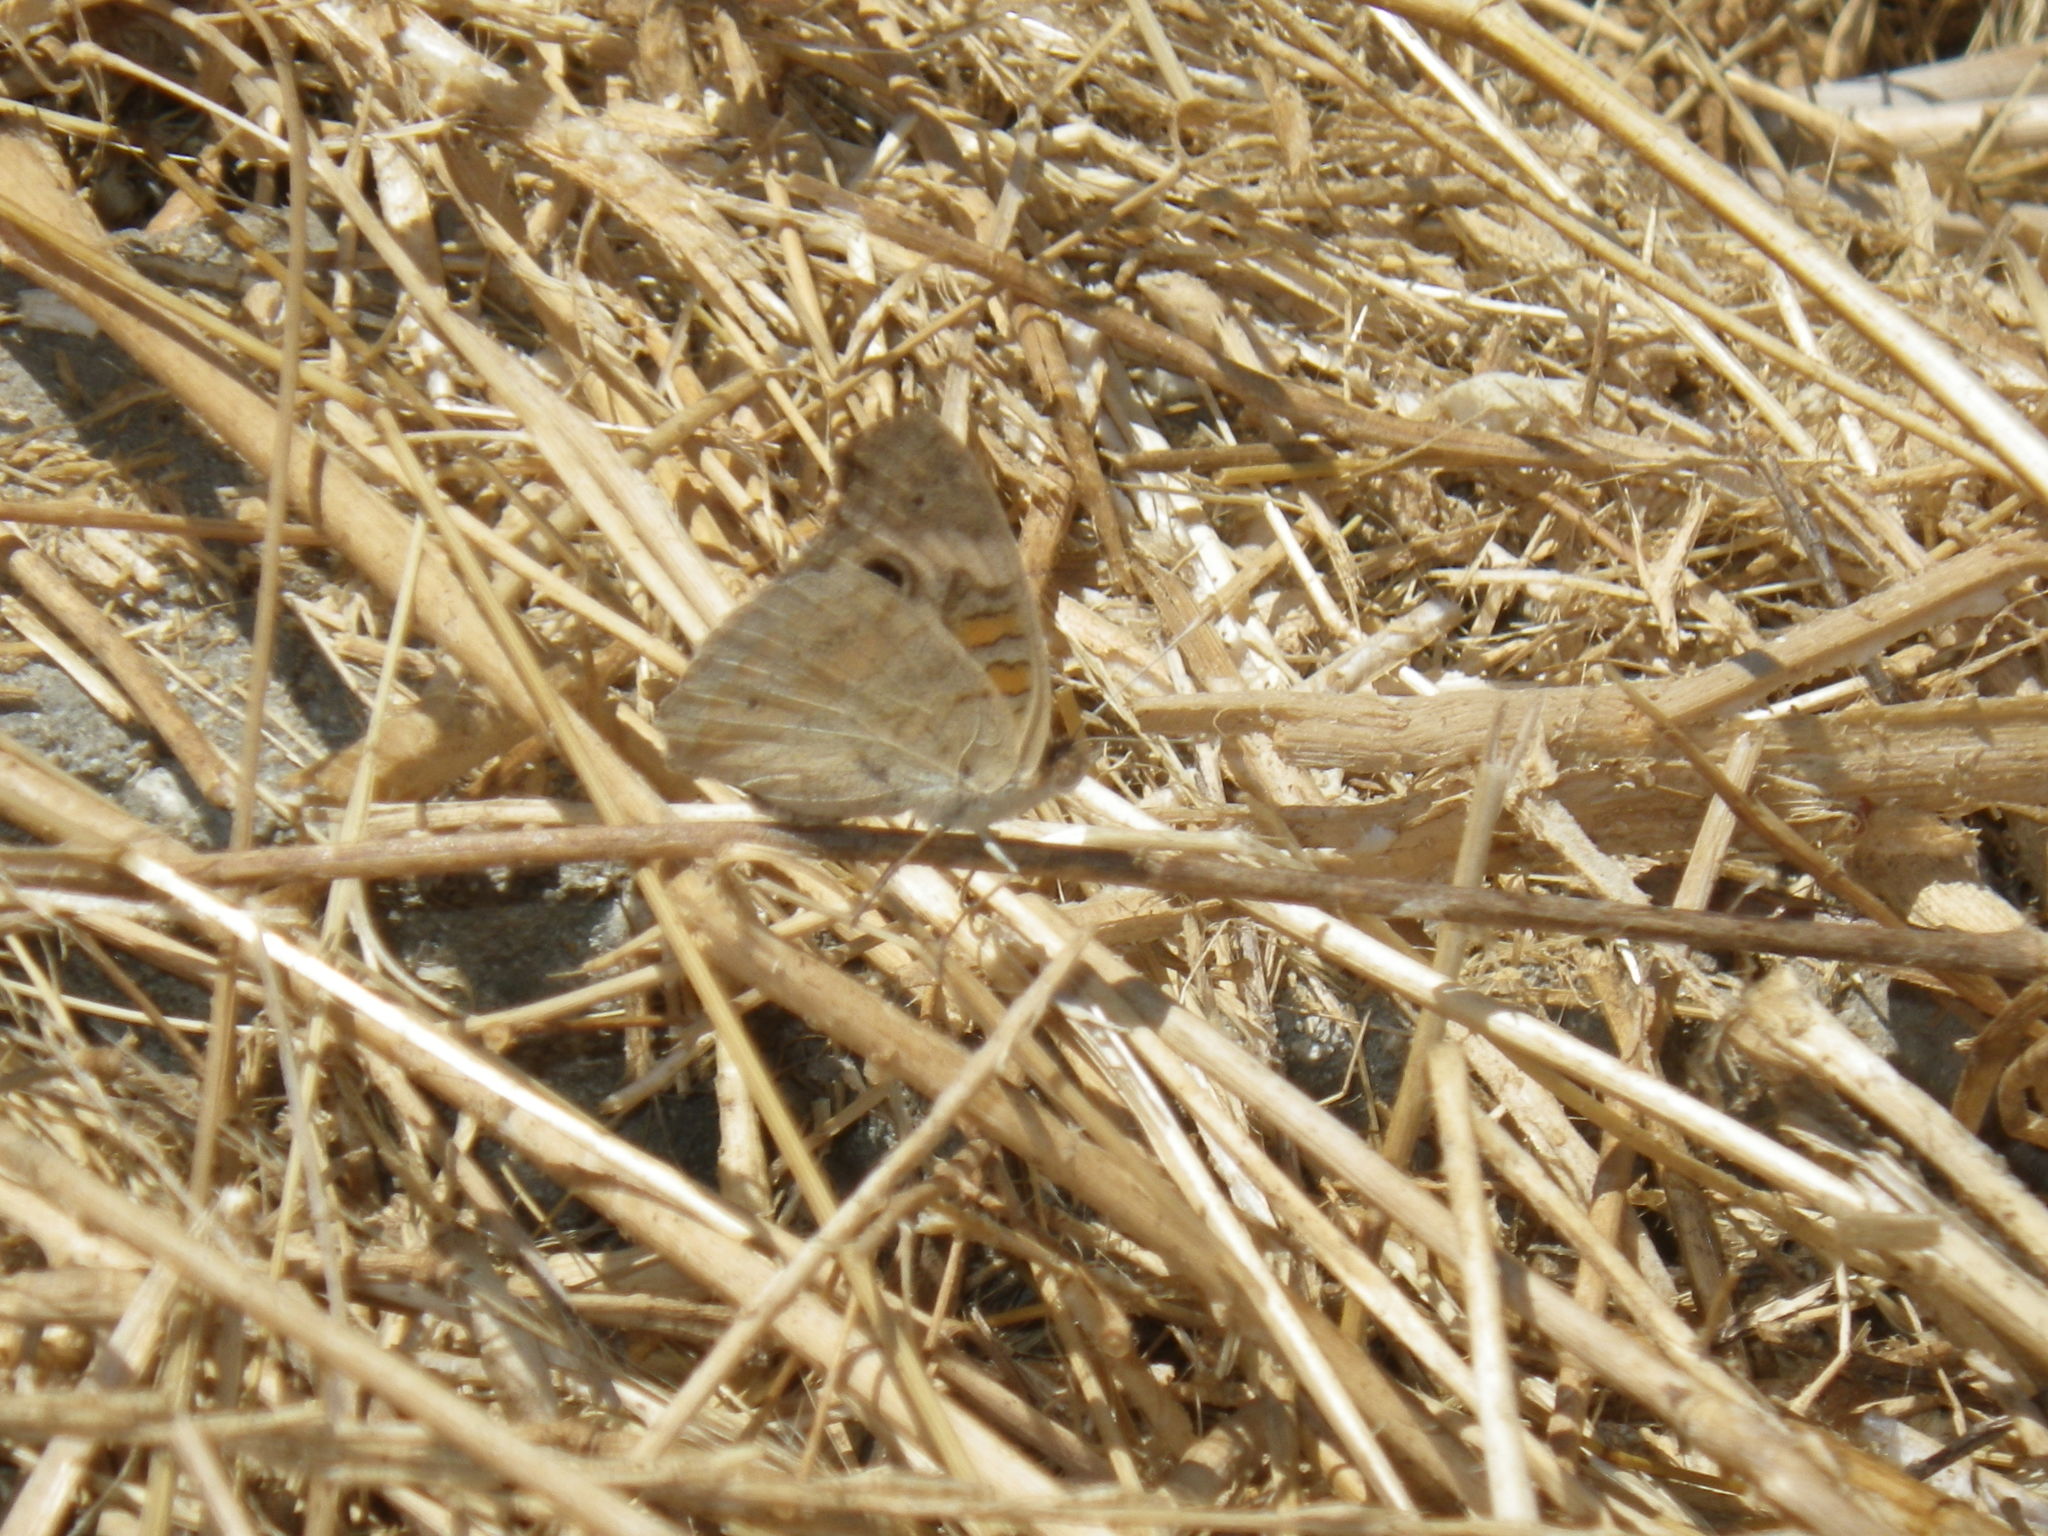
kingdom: Animalia
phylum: Arthropoda
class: Insecta
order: Lepidoptera
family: Nymphalidae
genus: Junonia
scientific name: Junonia grisea
